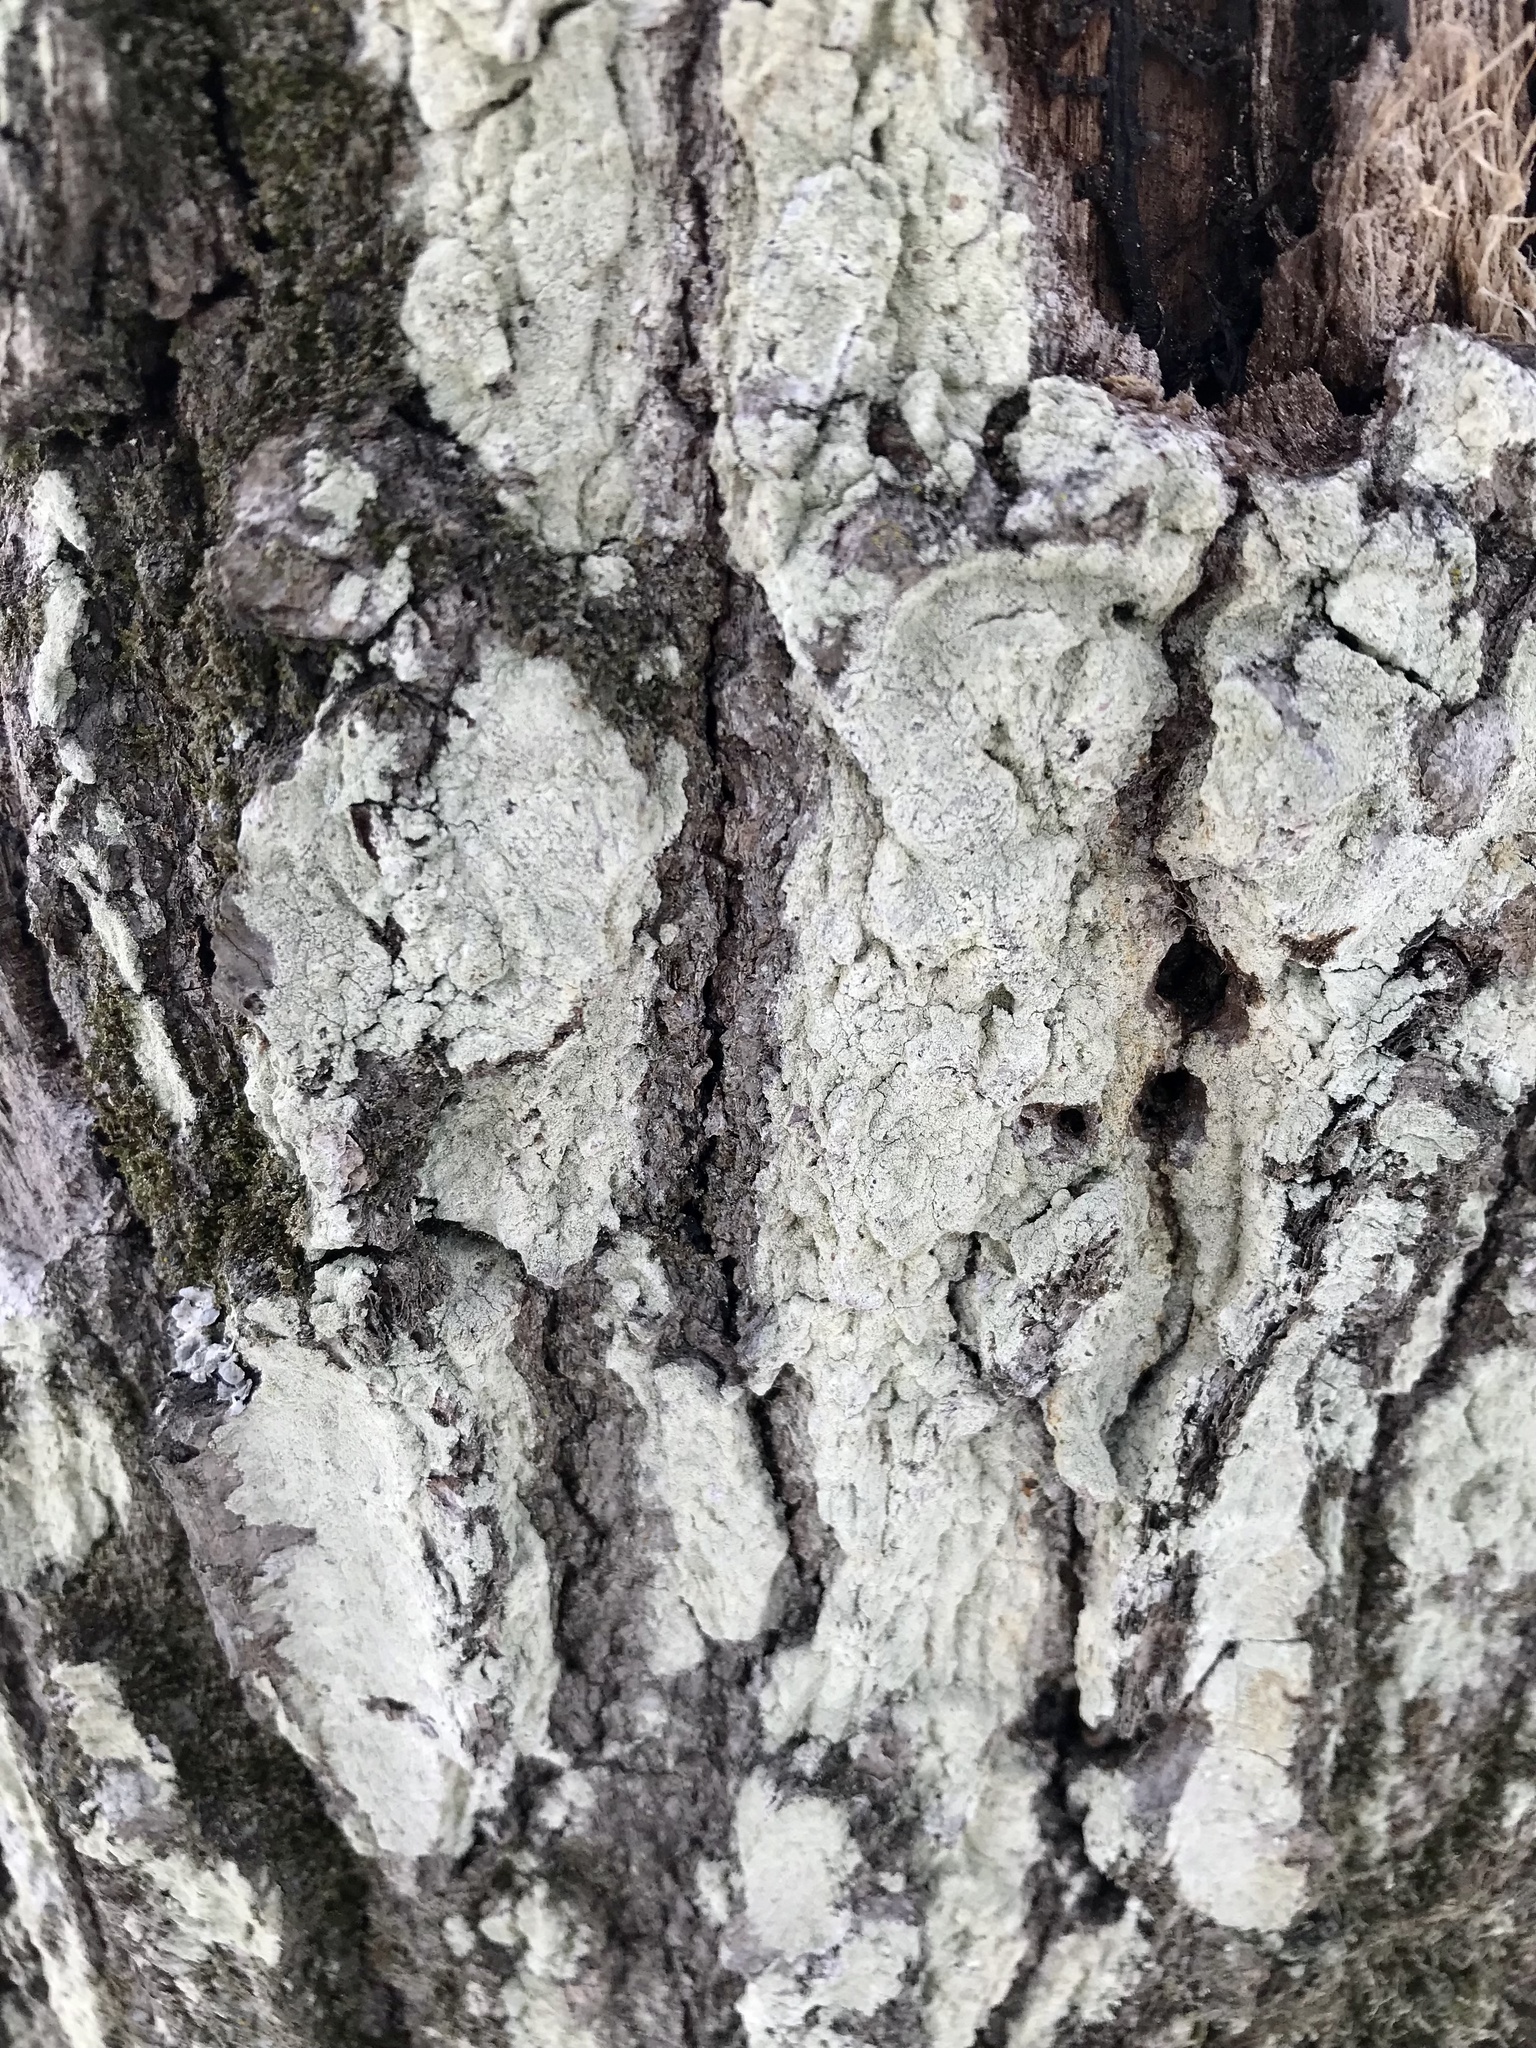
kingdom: Fungi
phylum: Ascomycota
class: Lecanoromycetes
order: Lecanorales
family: Stereocaulaceae
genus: Lepraria
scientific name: Lepraria lobificans
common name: Fluffy dust lichen
